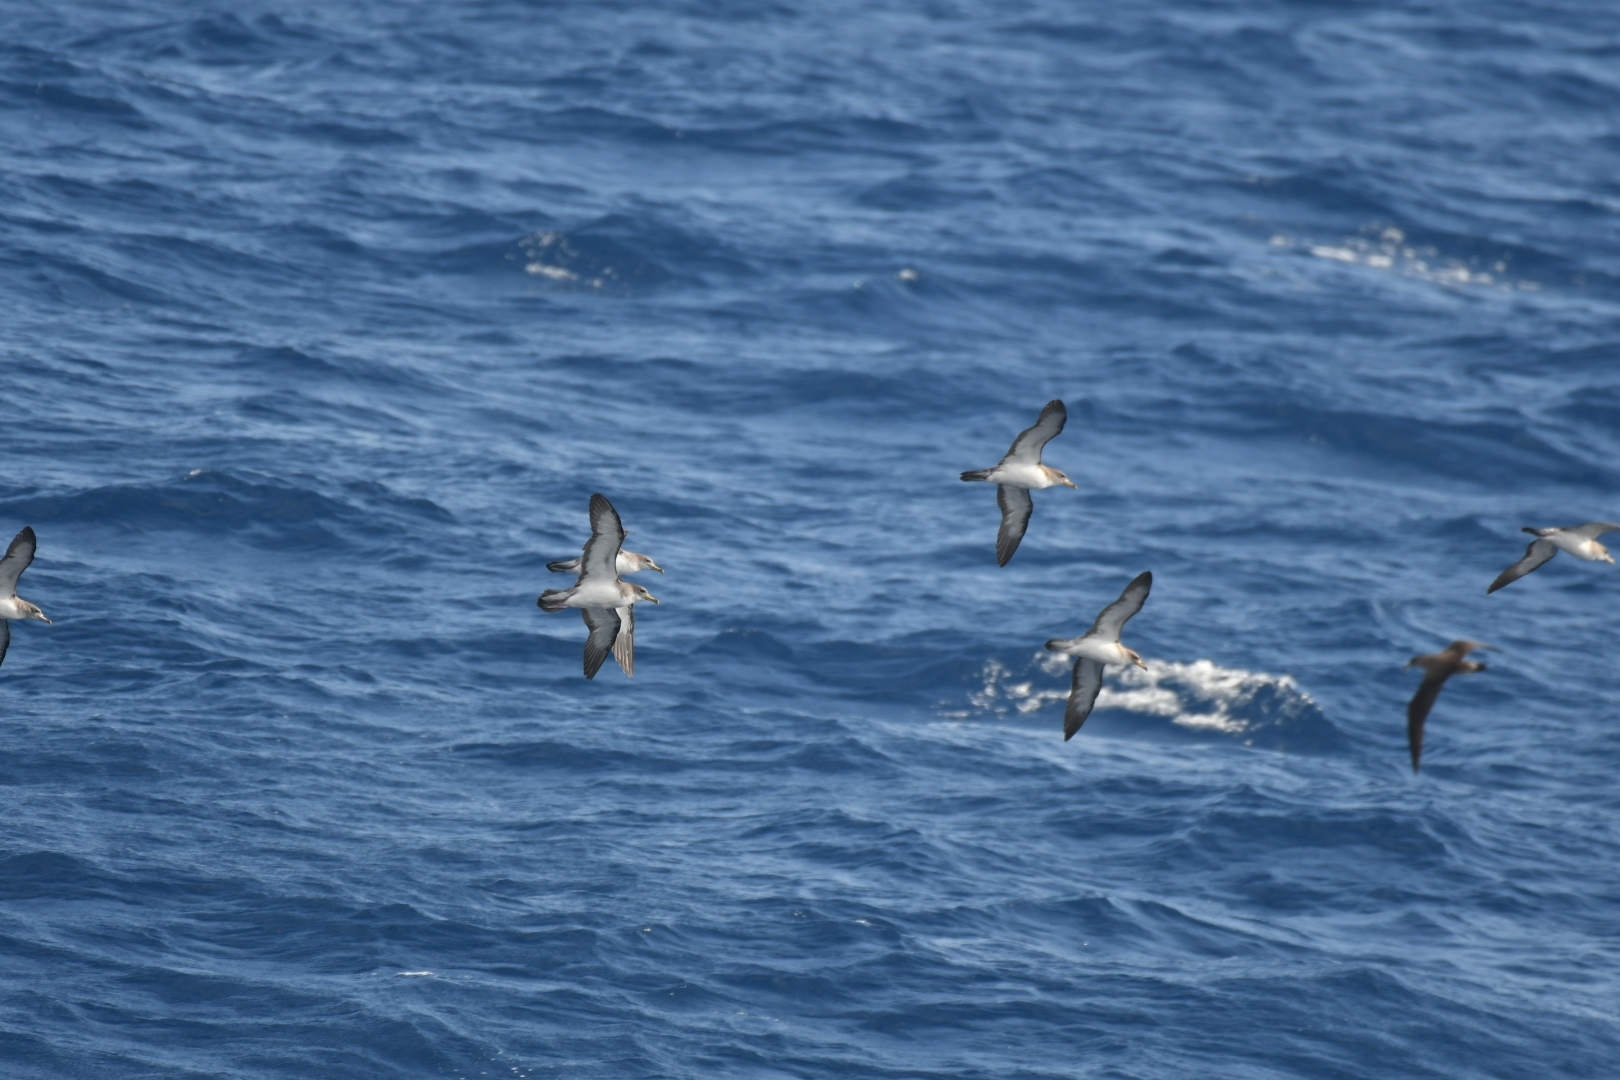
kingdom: Animalia
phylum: Chordata
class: Aves
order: Procellariiformes
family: Procellariidae
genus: Calonectris
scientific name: Calonectris diomedea
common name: Cory's shearwater
